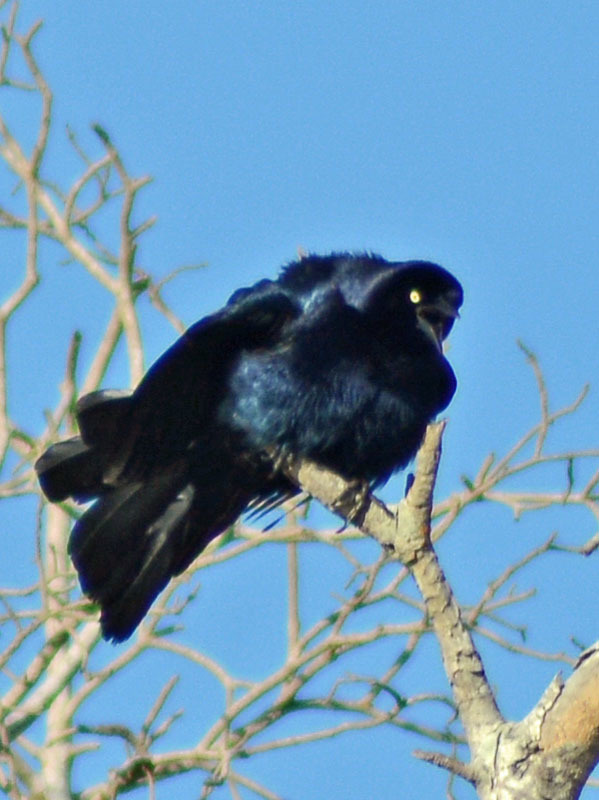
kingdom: Animalia
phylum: Chordata
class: Aves
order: Passeriformes
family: Icteridae
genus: Quiscalus
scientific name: Quiscalus mexicanus
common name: Great-tailed grackle
